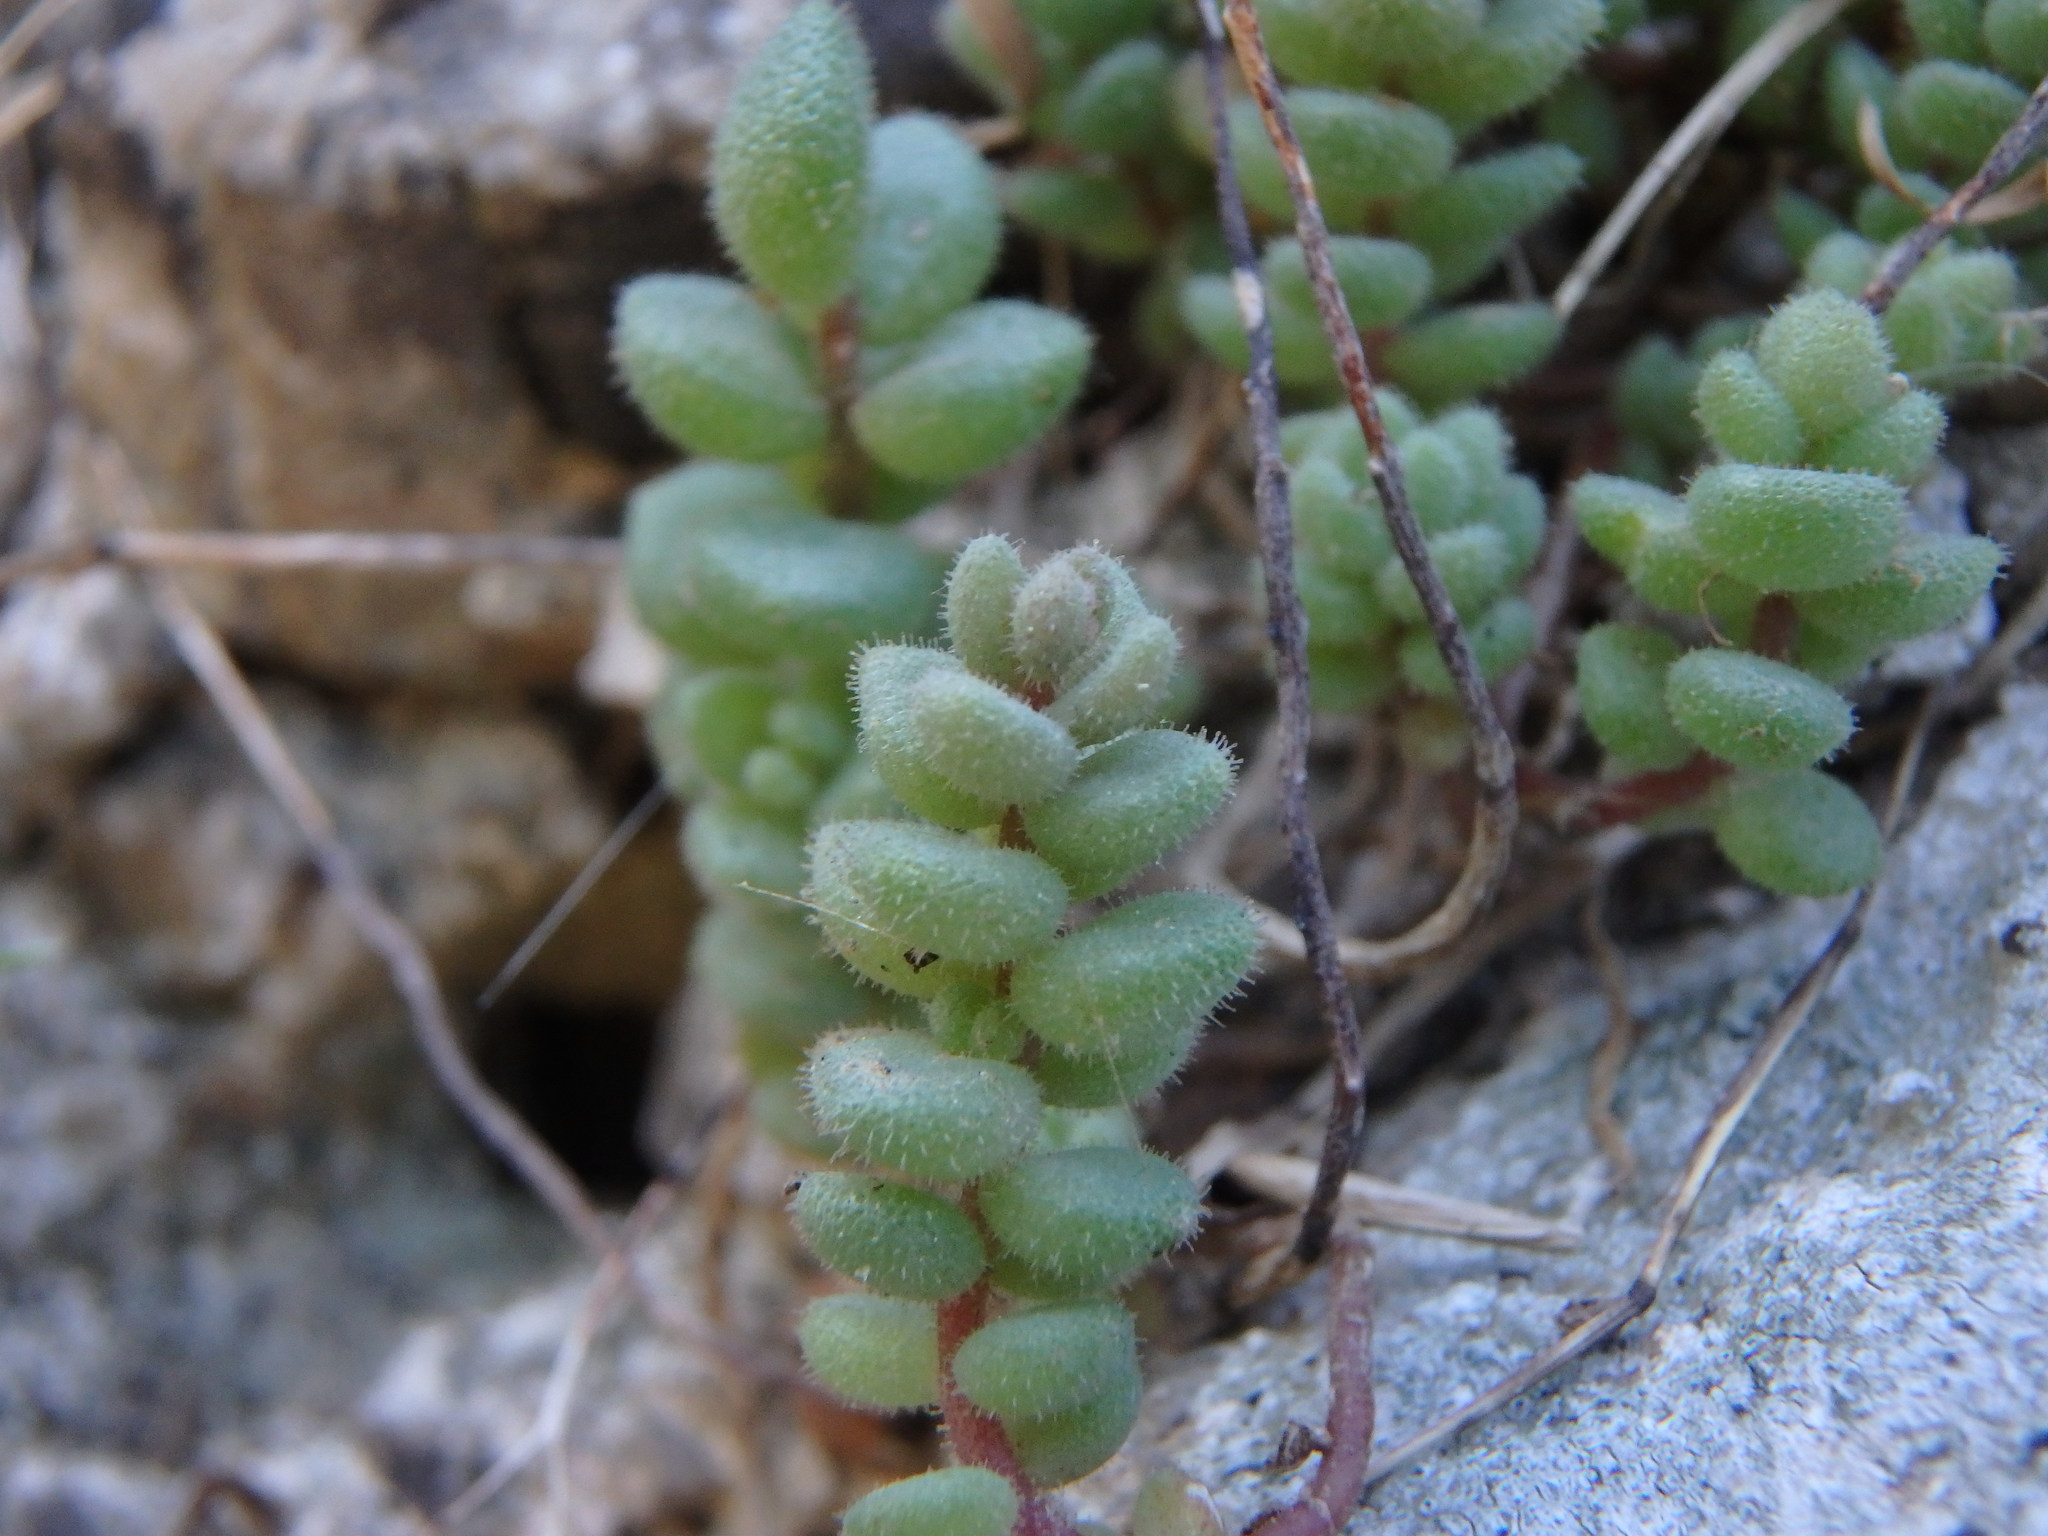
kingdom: Plantae
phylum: Tracheophyta
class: Magnoliopsida
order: Saxifragales
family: Crassulaceae
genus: Sedum
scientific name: Sedum dasyphyllum
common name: Thick-leaf stonecrop
